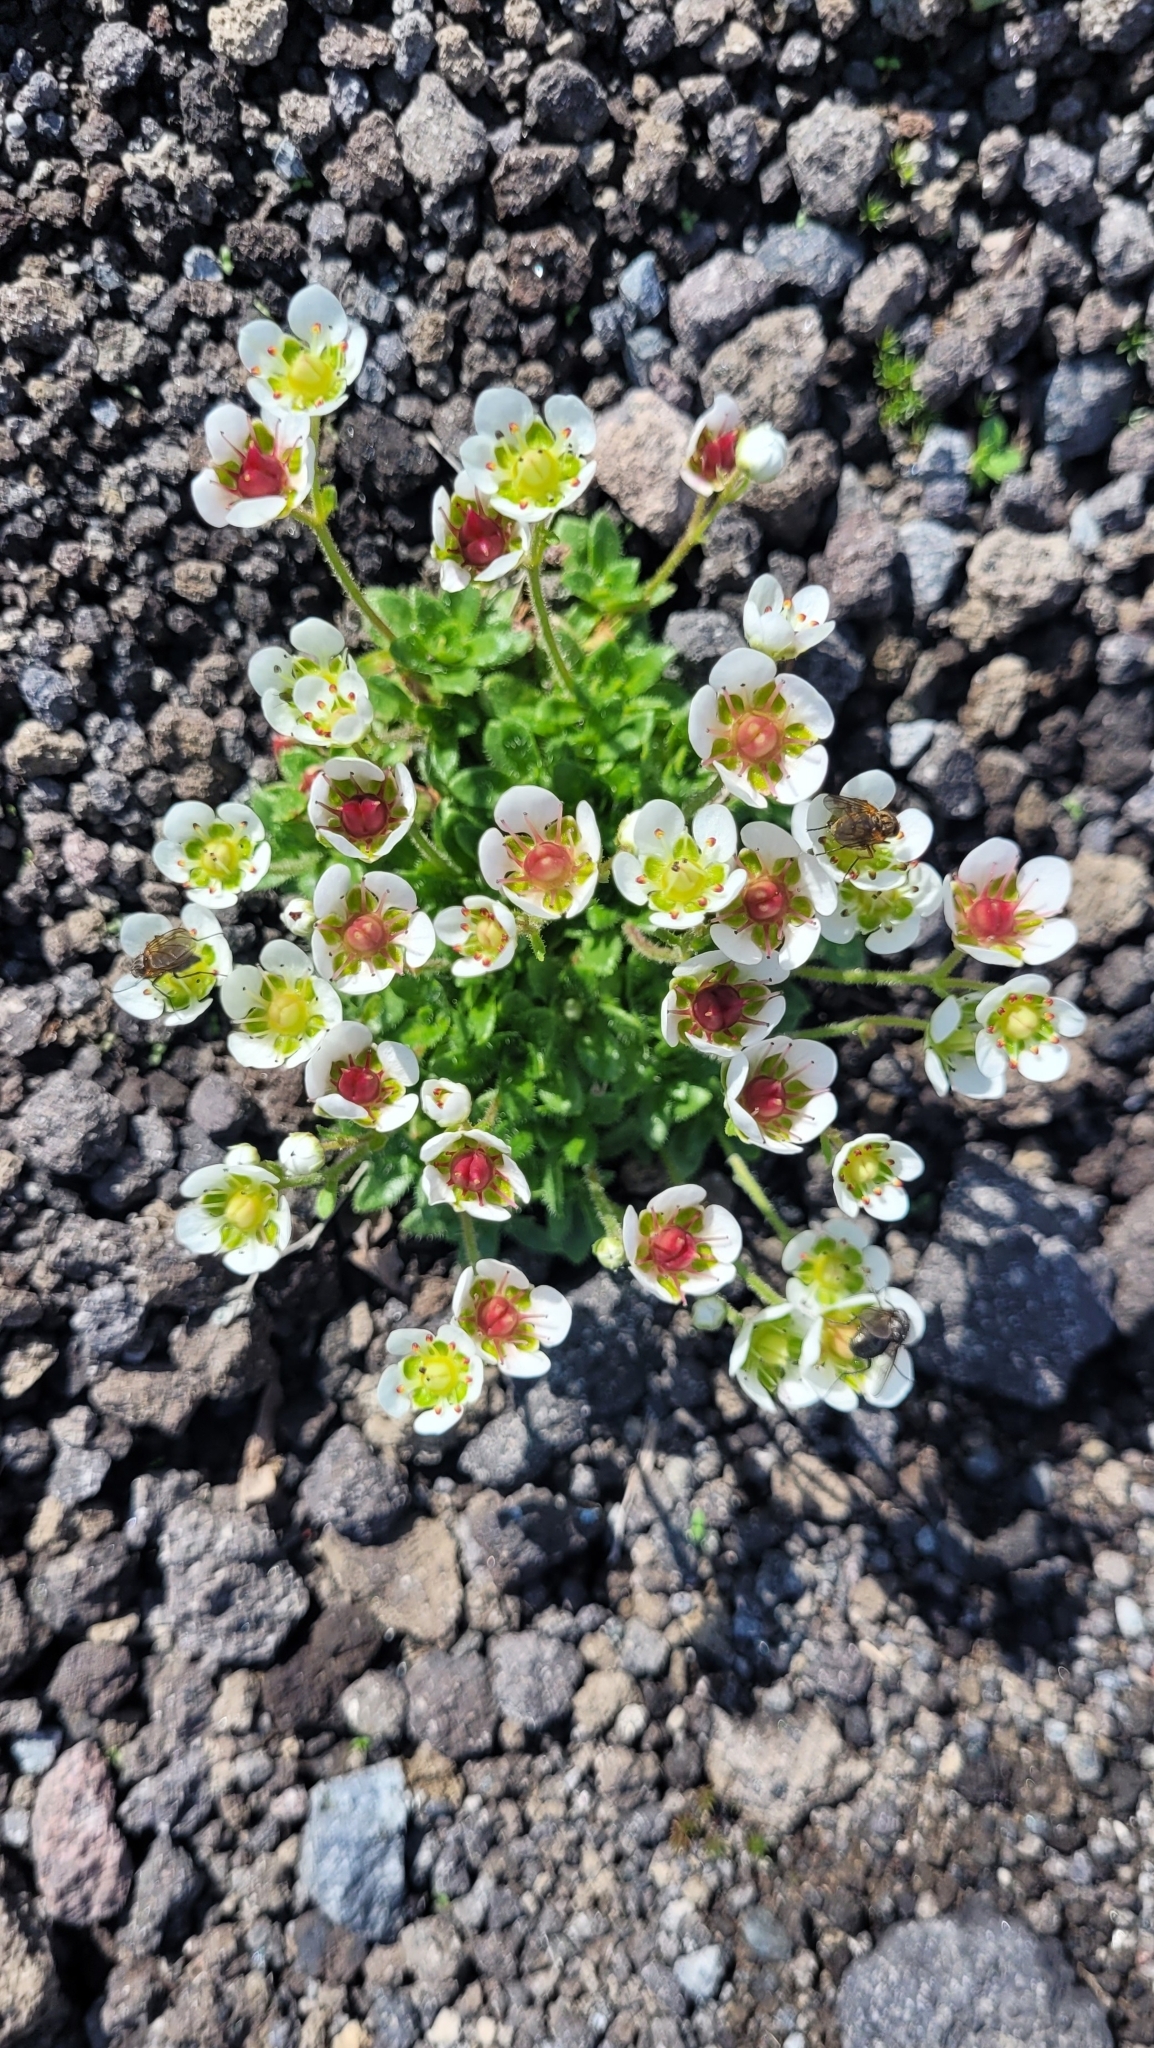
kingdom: Plantae
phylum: Tracheophyta
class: Magnoliopsida
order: Saxifragales
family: Saxifragaceae
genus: Micranthes
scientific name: Micranthes merkii
